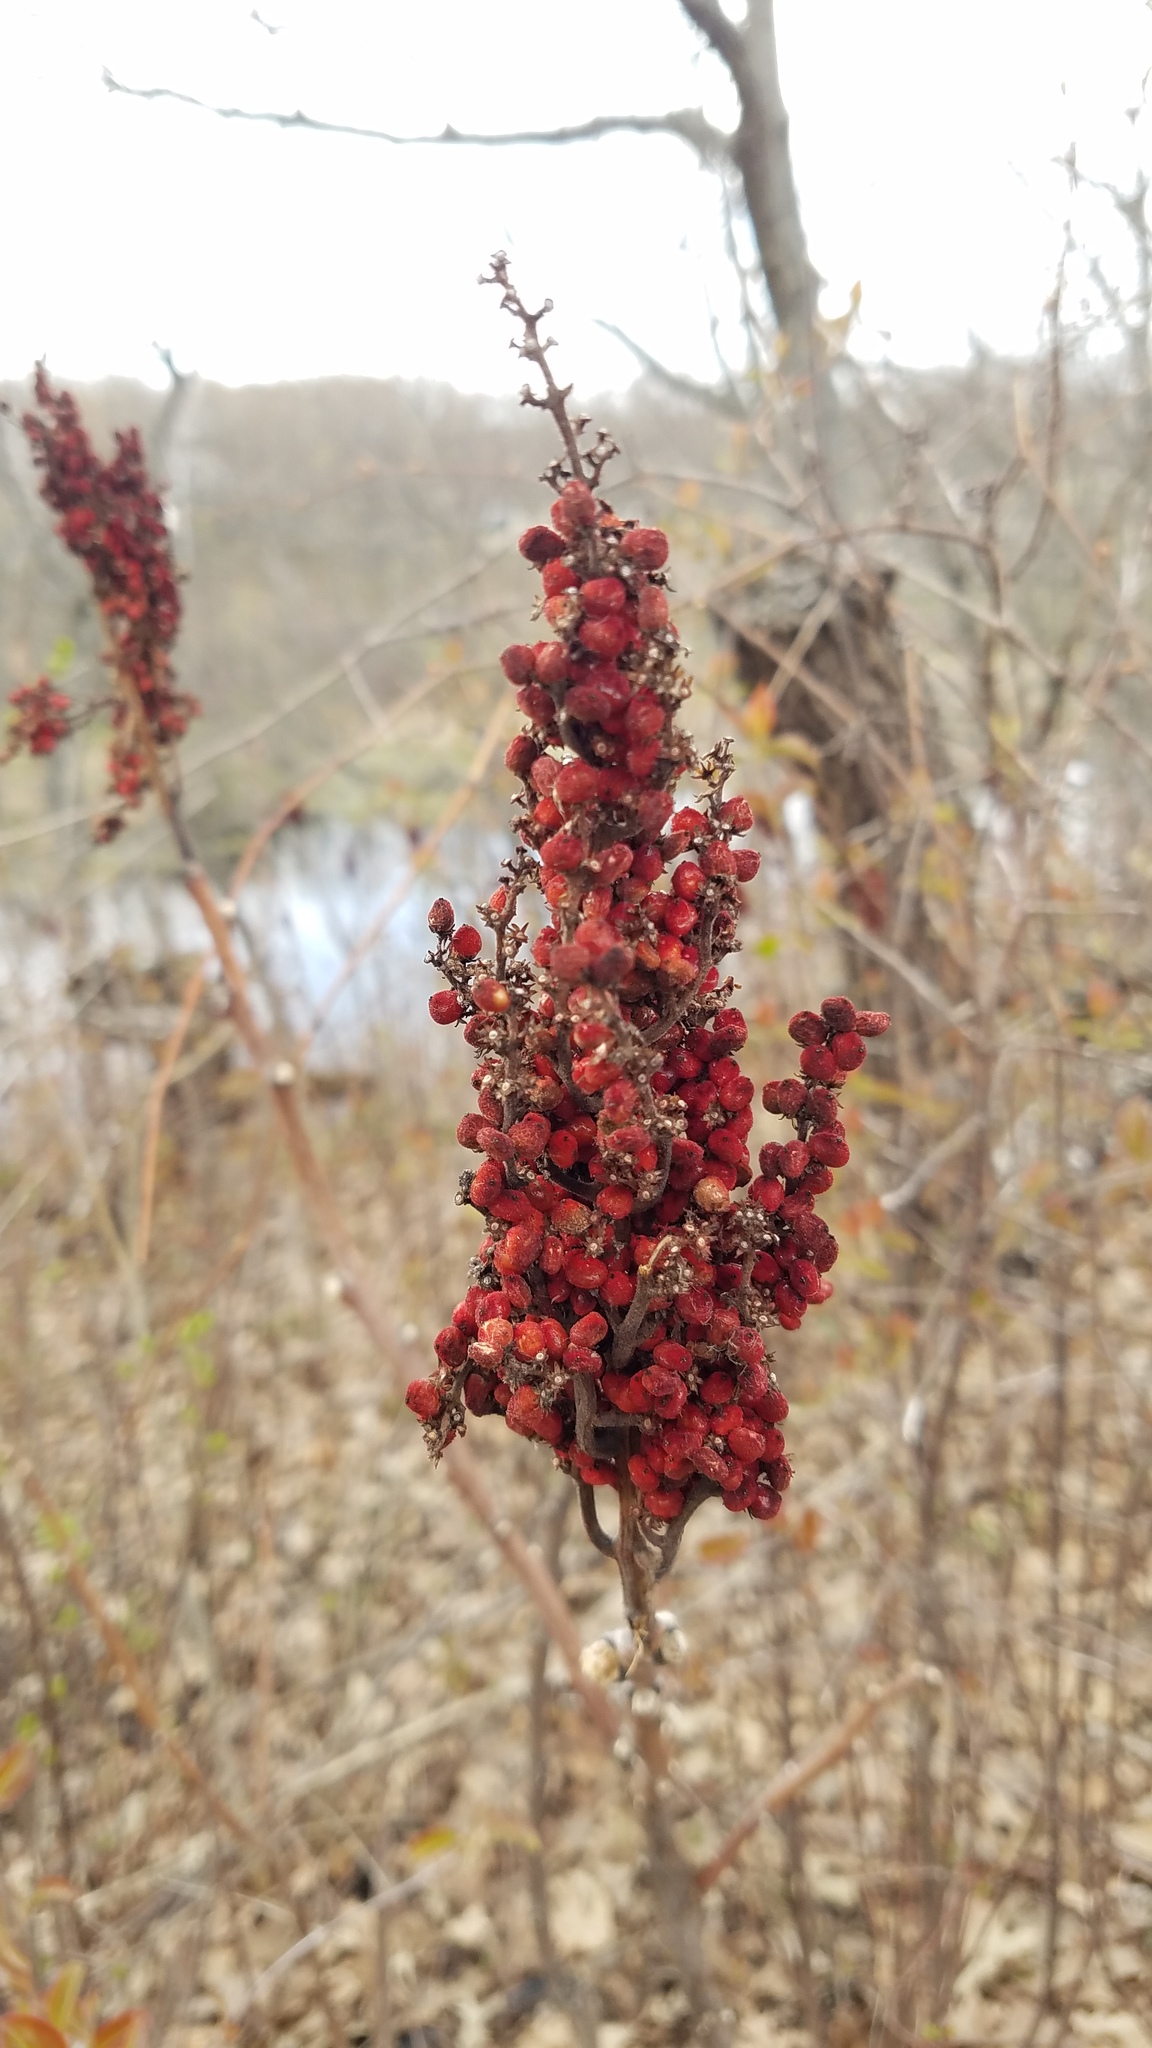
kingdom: Plantae
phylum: Tracheophyta
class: Magnoliopsida
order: Sapindales
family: Anacardiaceae
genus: Rhus
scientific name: Rhus glabra
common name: Scarlet sumac
